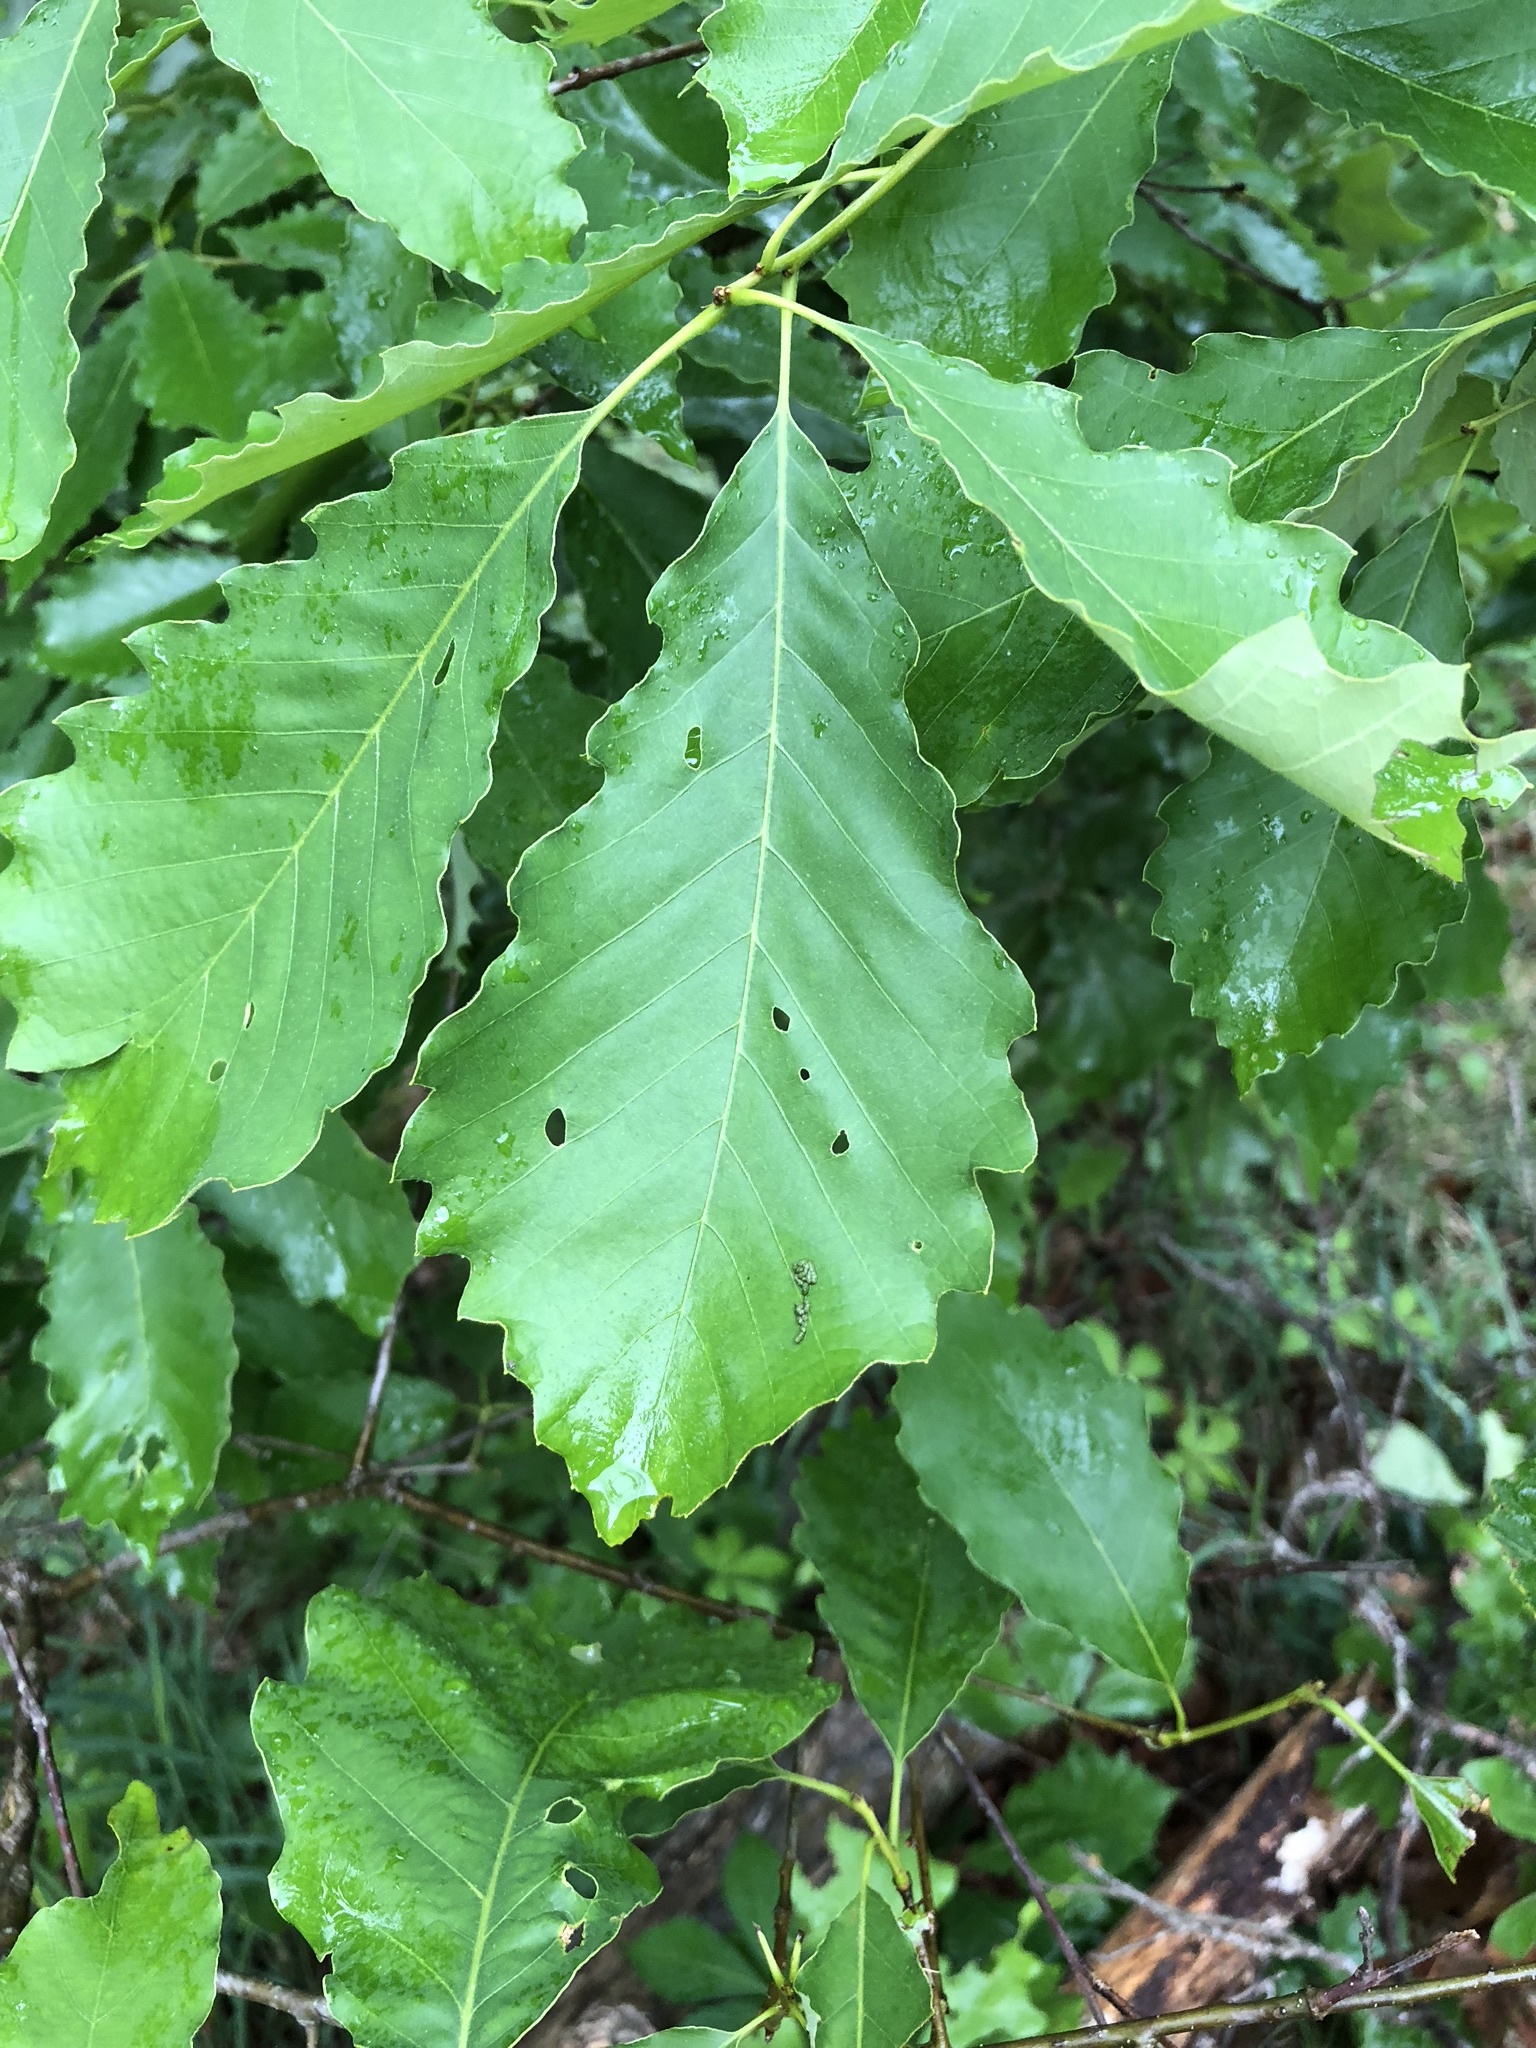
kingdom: Plantae
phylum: Tracheophyta
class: Magnoliopsida
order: Fagales
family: Fagaceae
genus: Quercus
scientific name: Quercus muehlenbergii
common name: Chinkapin oak
